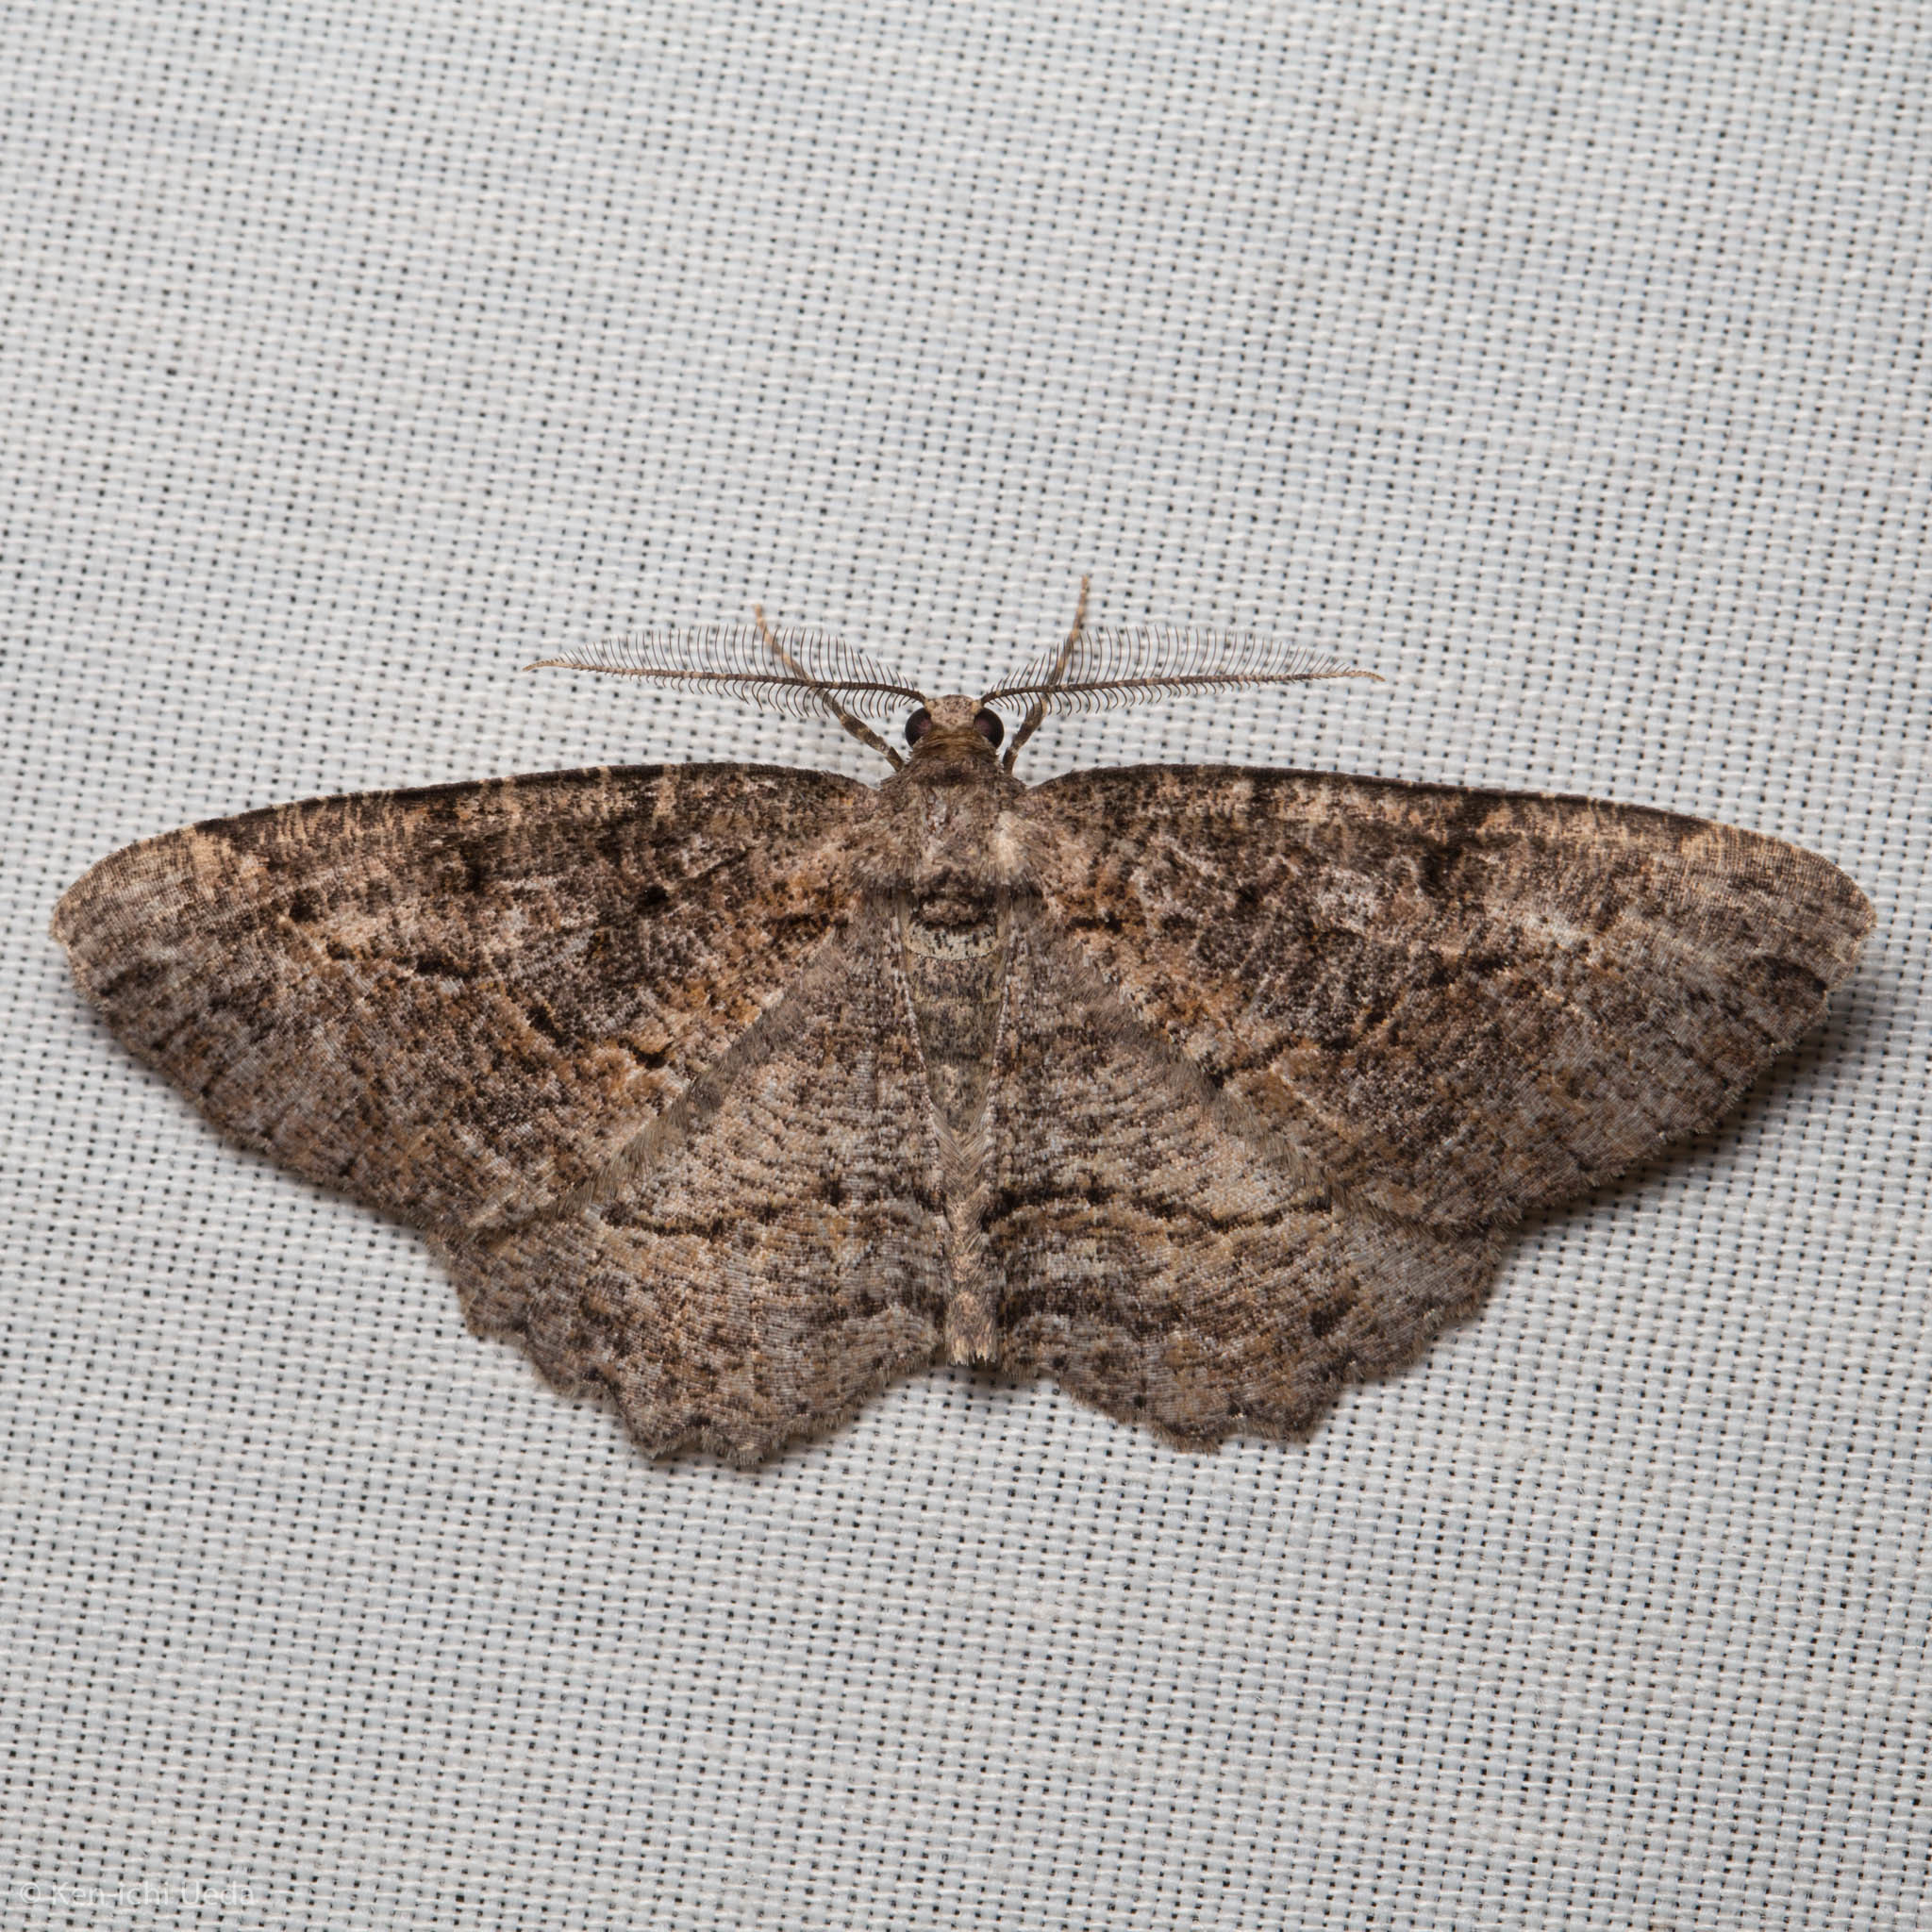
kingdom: Animalia
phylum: Arthropoda
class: Insecta
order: Lepidoptera
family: Geometridae
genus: Neoalcis
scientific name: Neoalcis californiaria
